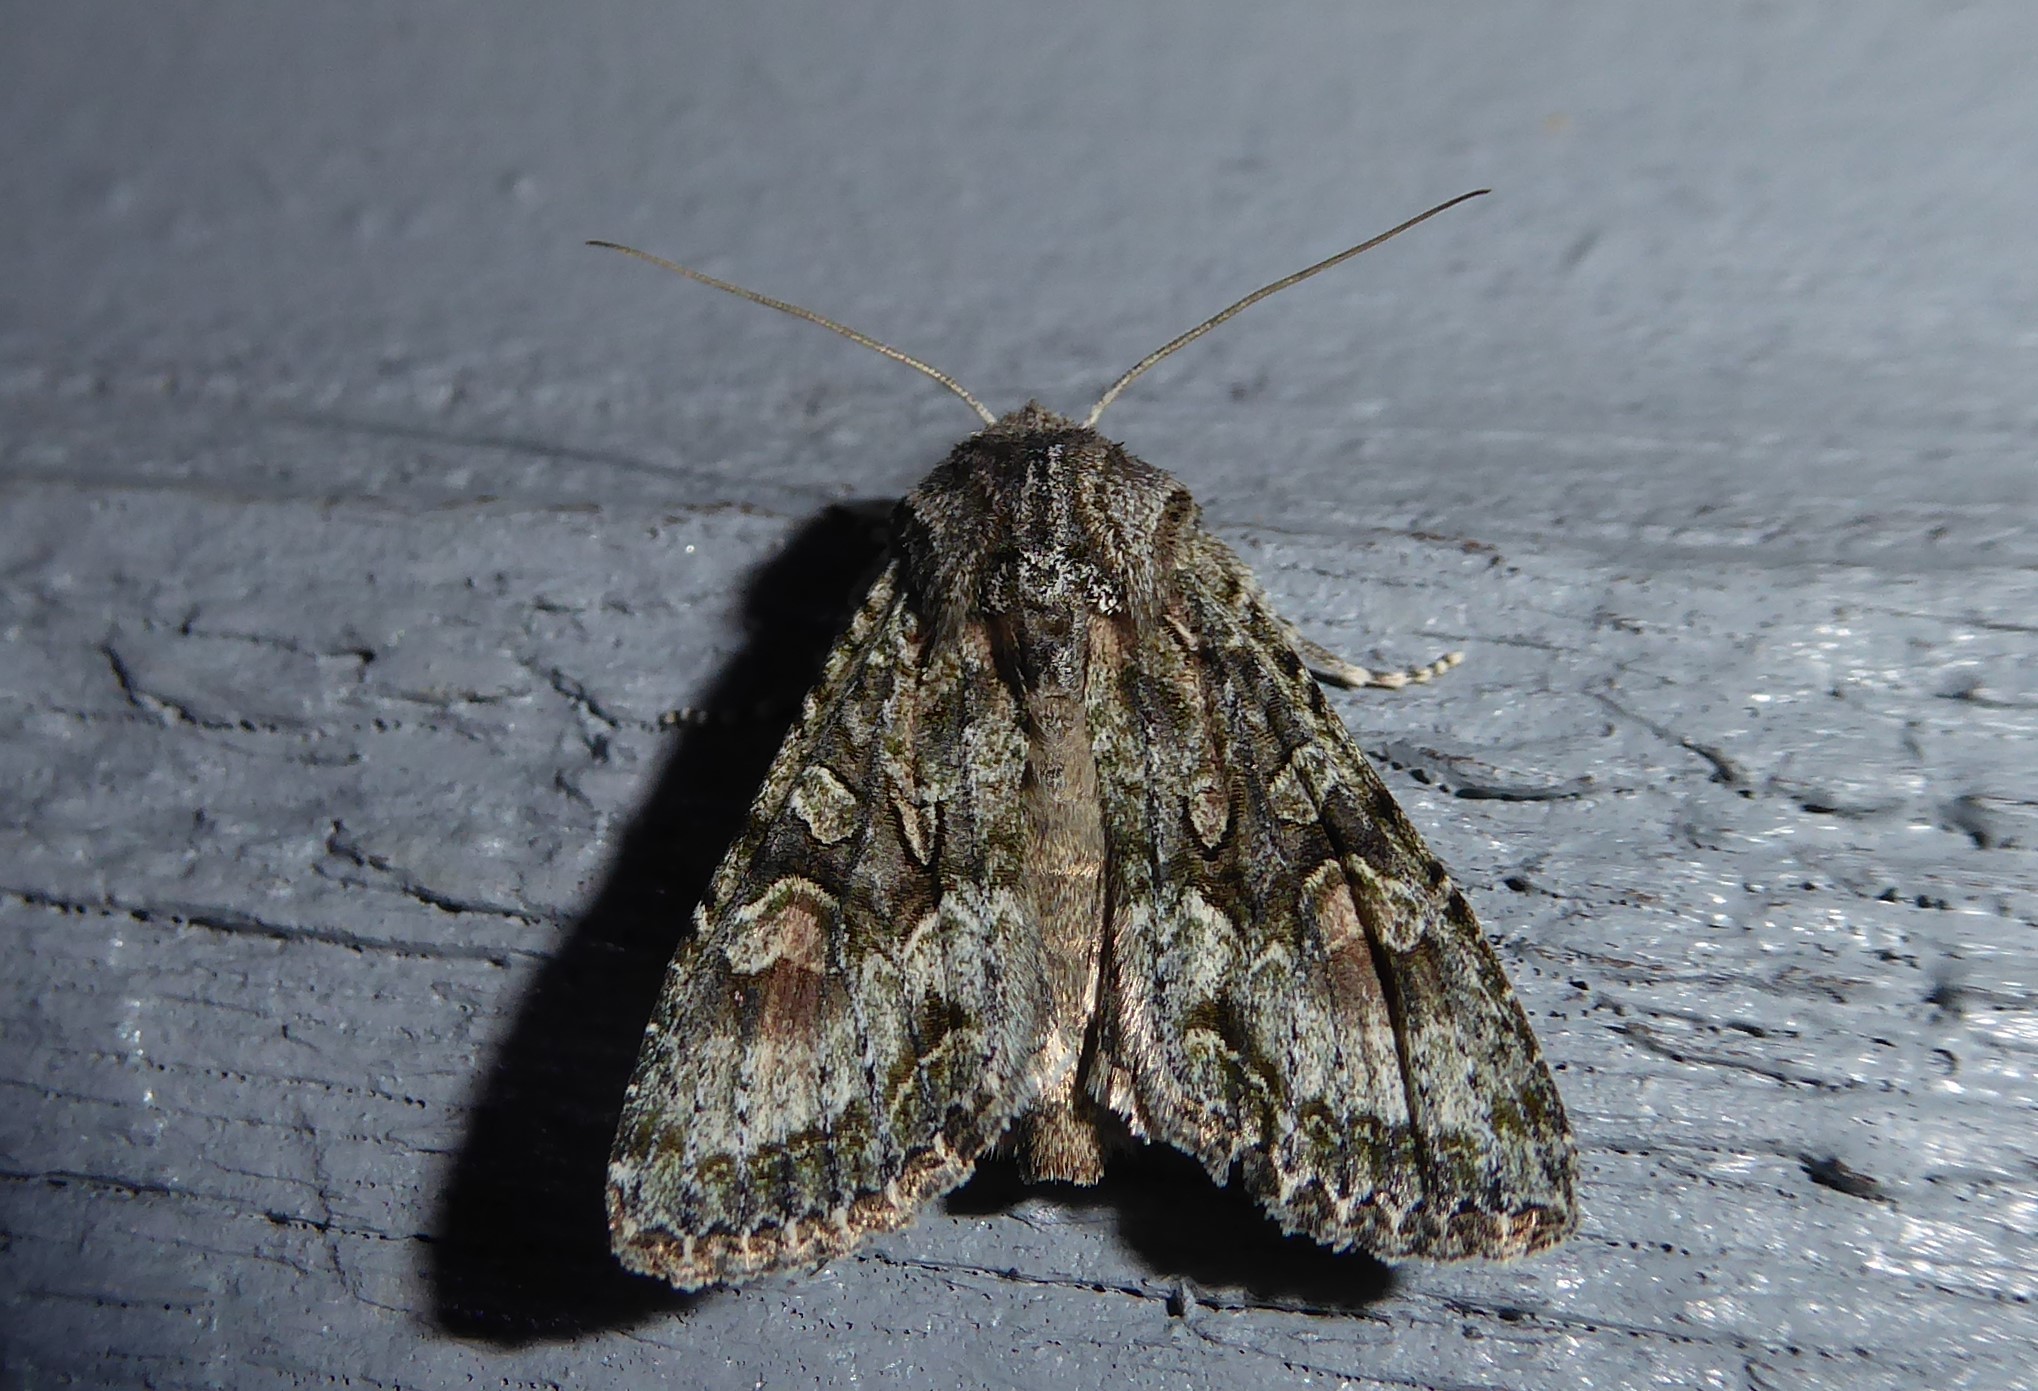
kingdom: Animalia
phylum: Arthropoda
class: Insecta
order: Lepidoptera
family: Noctuidae
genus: Ichneutica
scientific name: Ichneutica mutans
